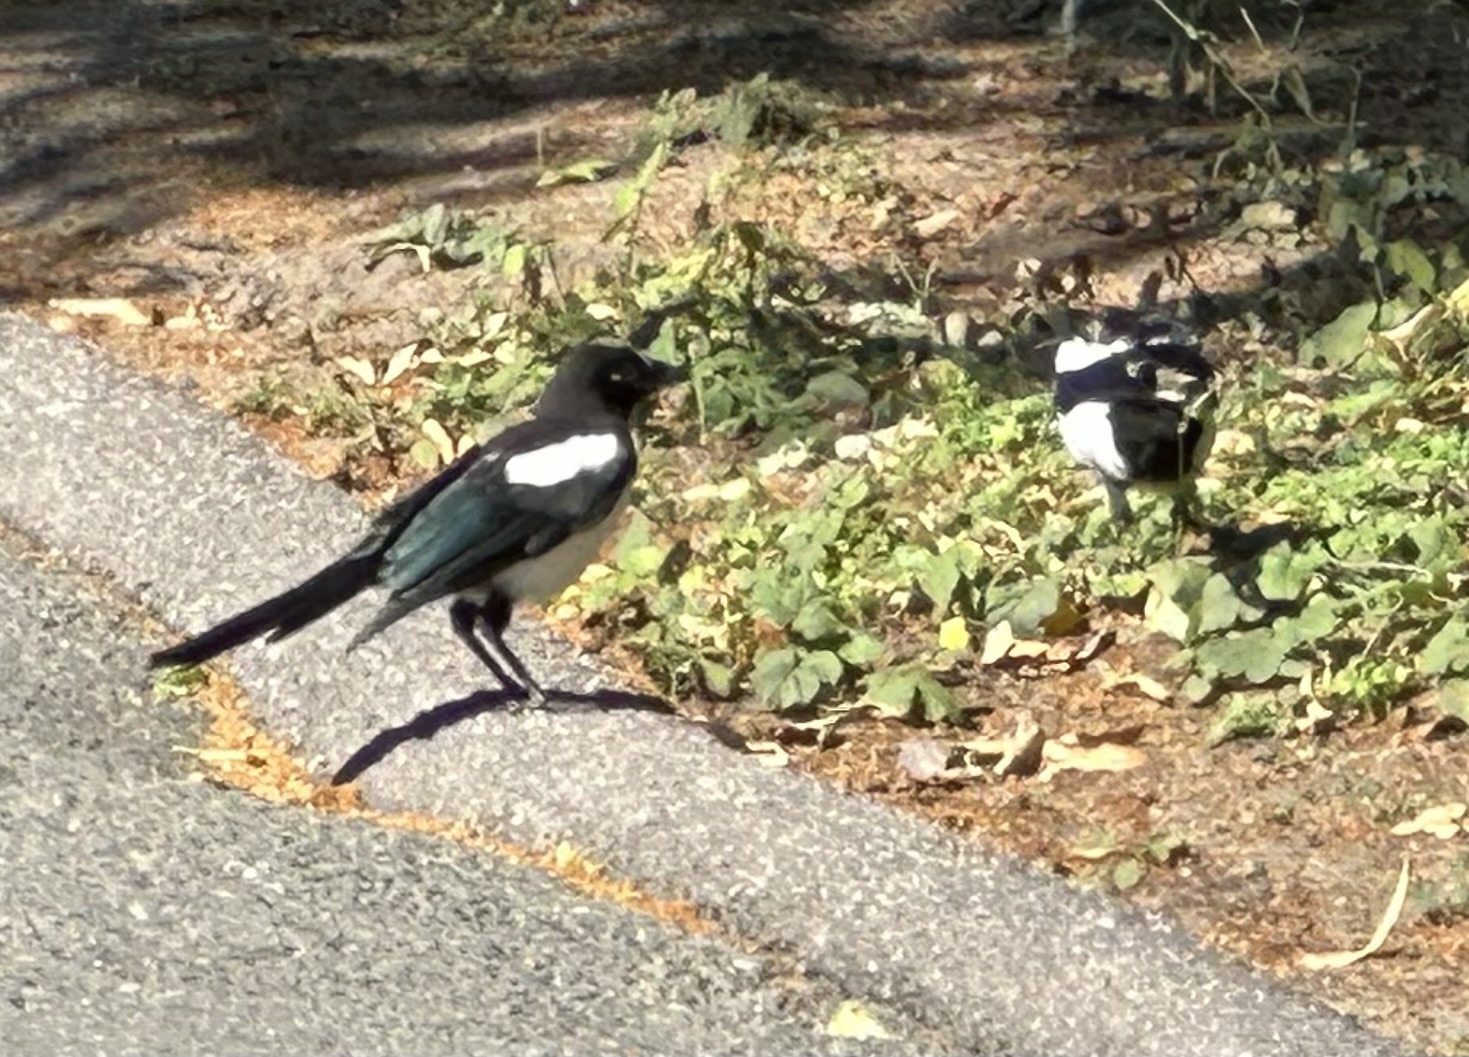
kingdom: Animalia
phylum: Chordata
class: Aves
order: Passeriformes
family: Corvidae
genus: Pica
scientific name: Pica pica
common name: Eurasian magpie
